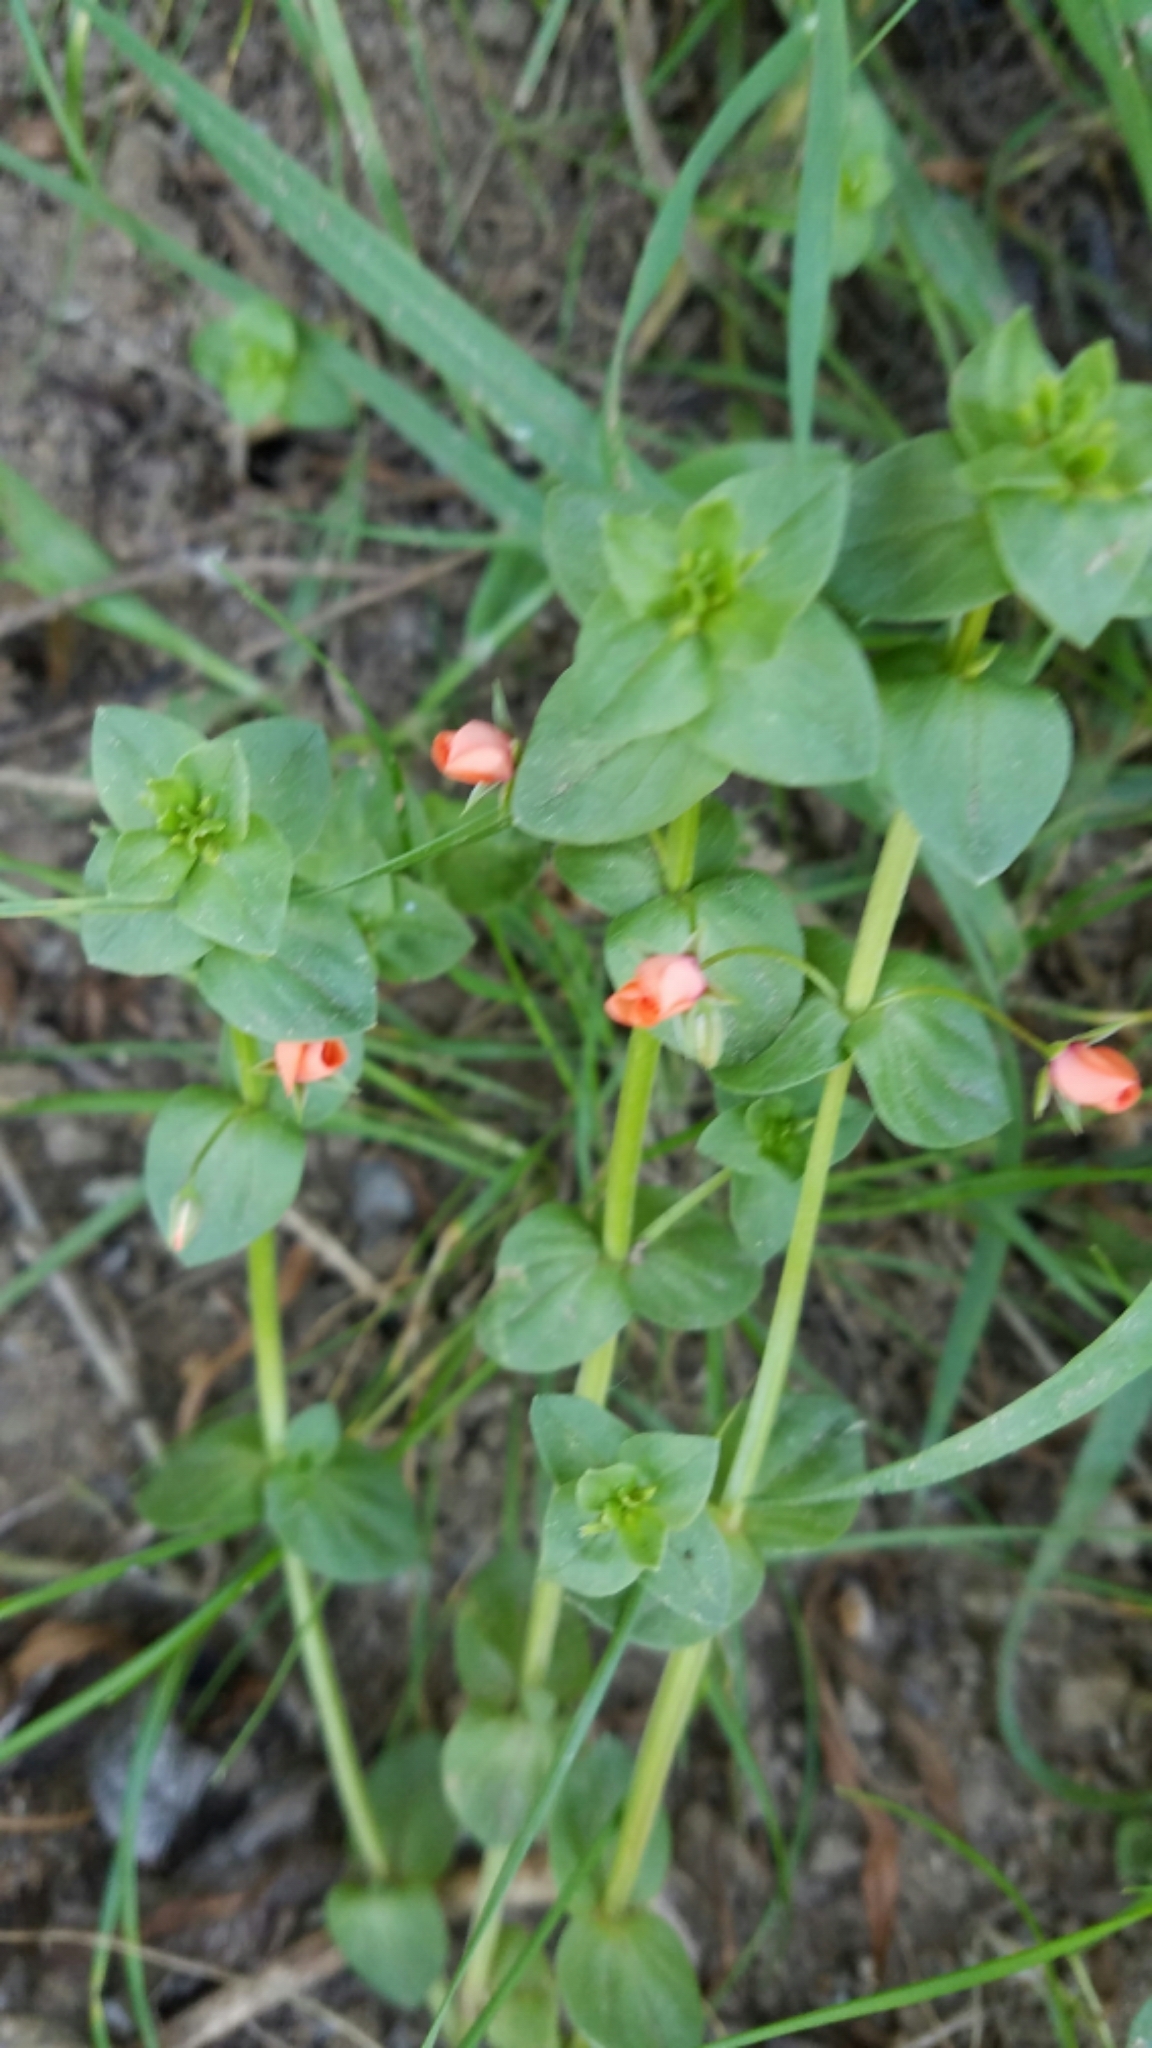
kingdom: Plantae
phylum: Tracheophyta
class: Magnoliopsida
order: Ericales
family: Primulaceae
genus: Lysimachia
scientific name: Lysimachia arvensis
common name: Scarlet pimpernel
